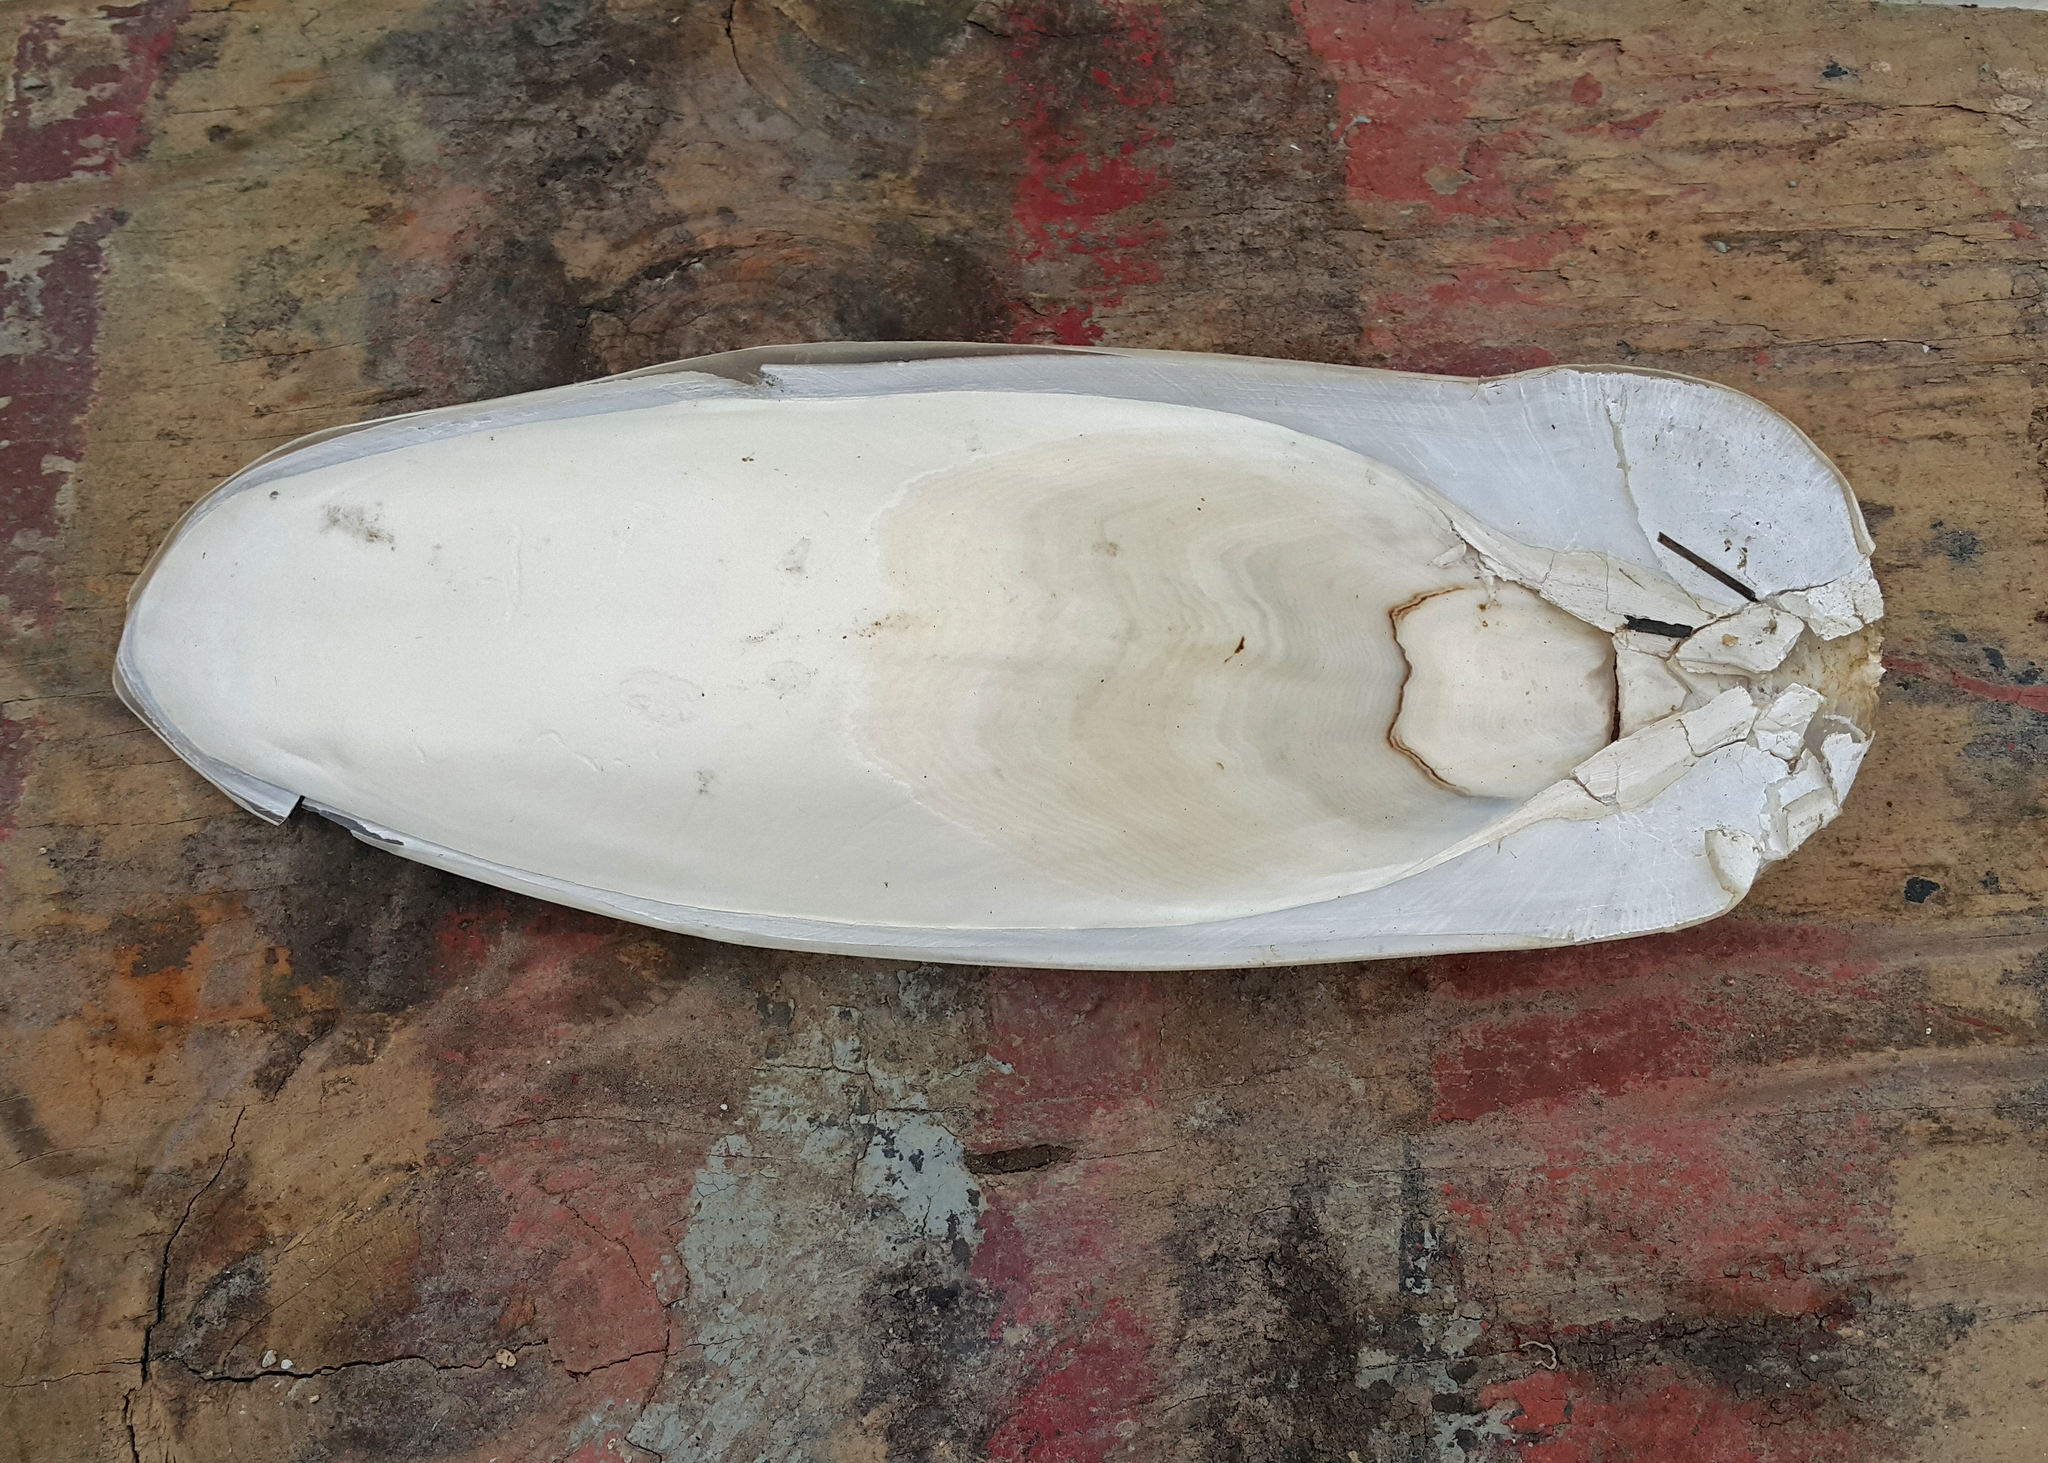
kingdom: Animalia
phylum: Mollusca
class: Cephalopoda
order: Sepiida
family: Sepiidae
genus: Sepia
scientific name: Sepia officinalis
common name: Common cuttlefish
